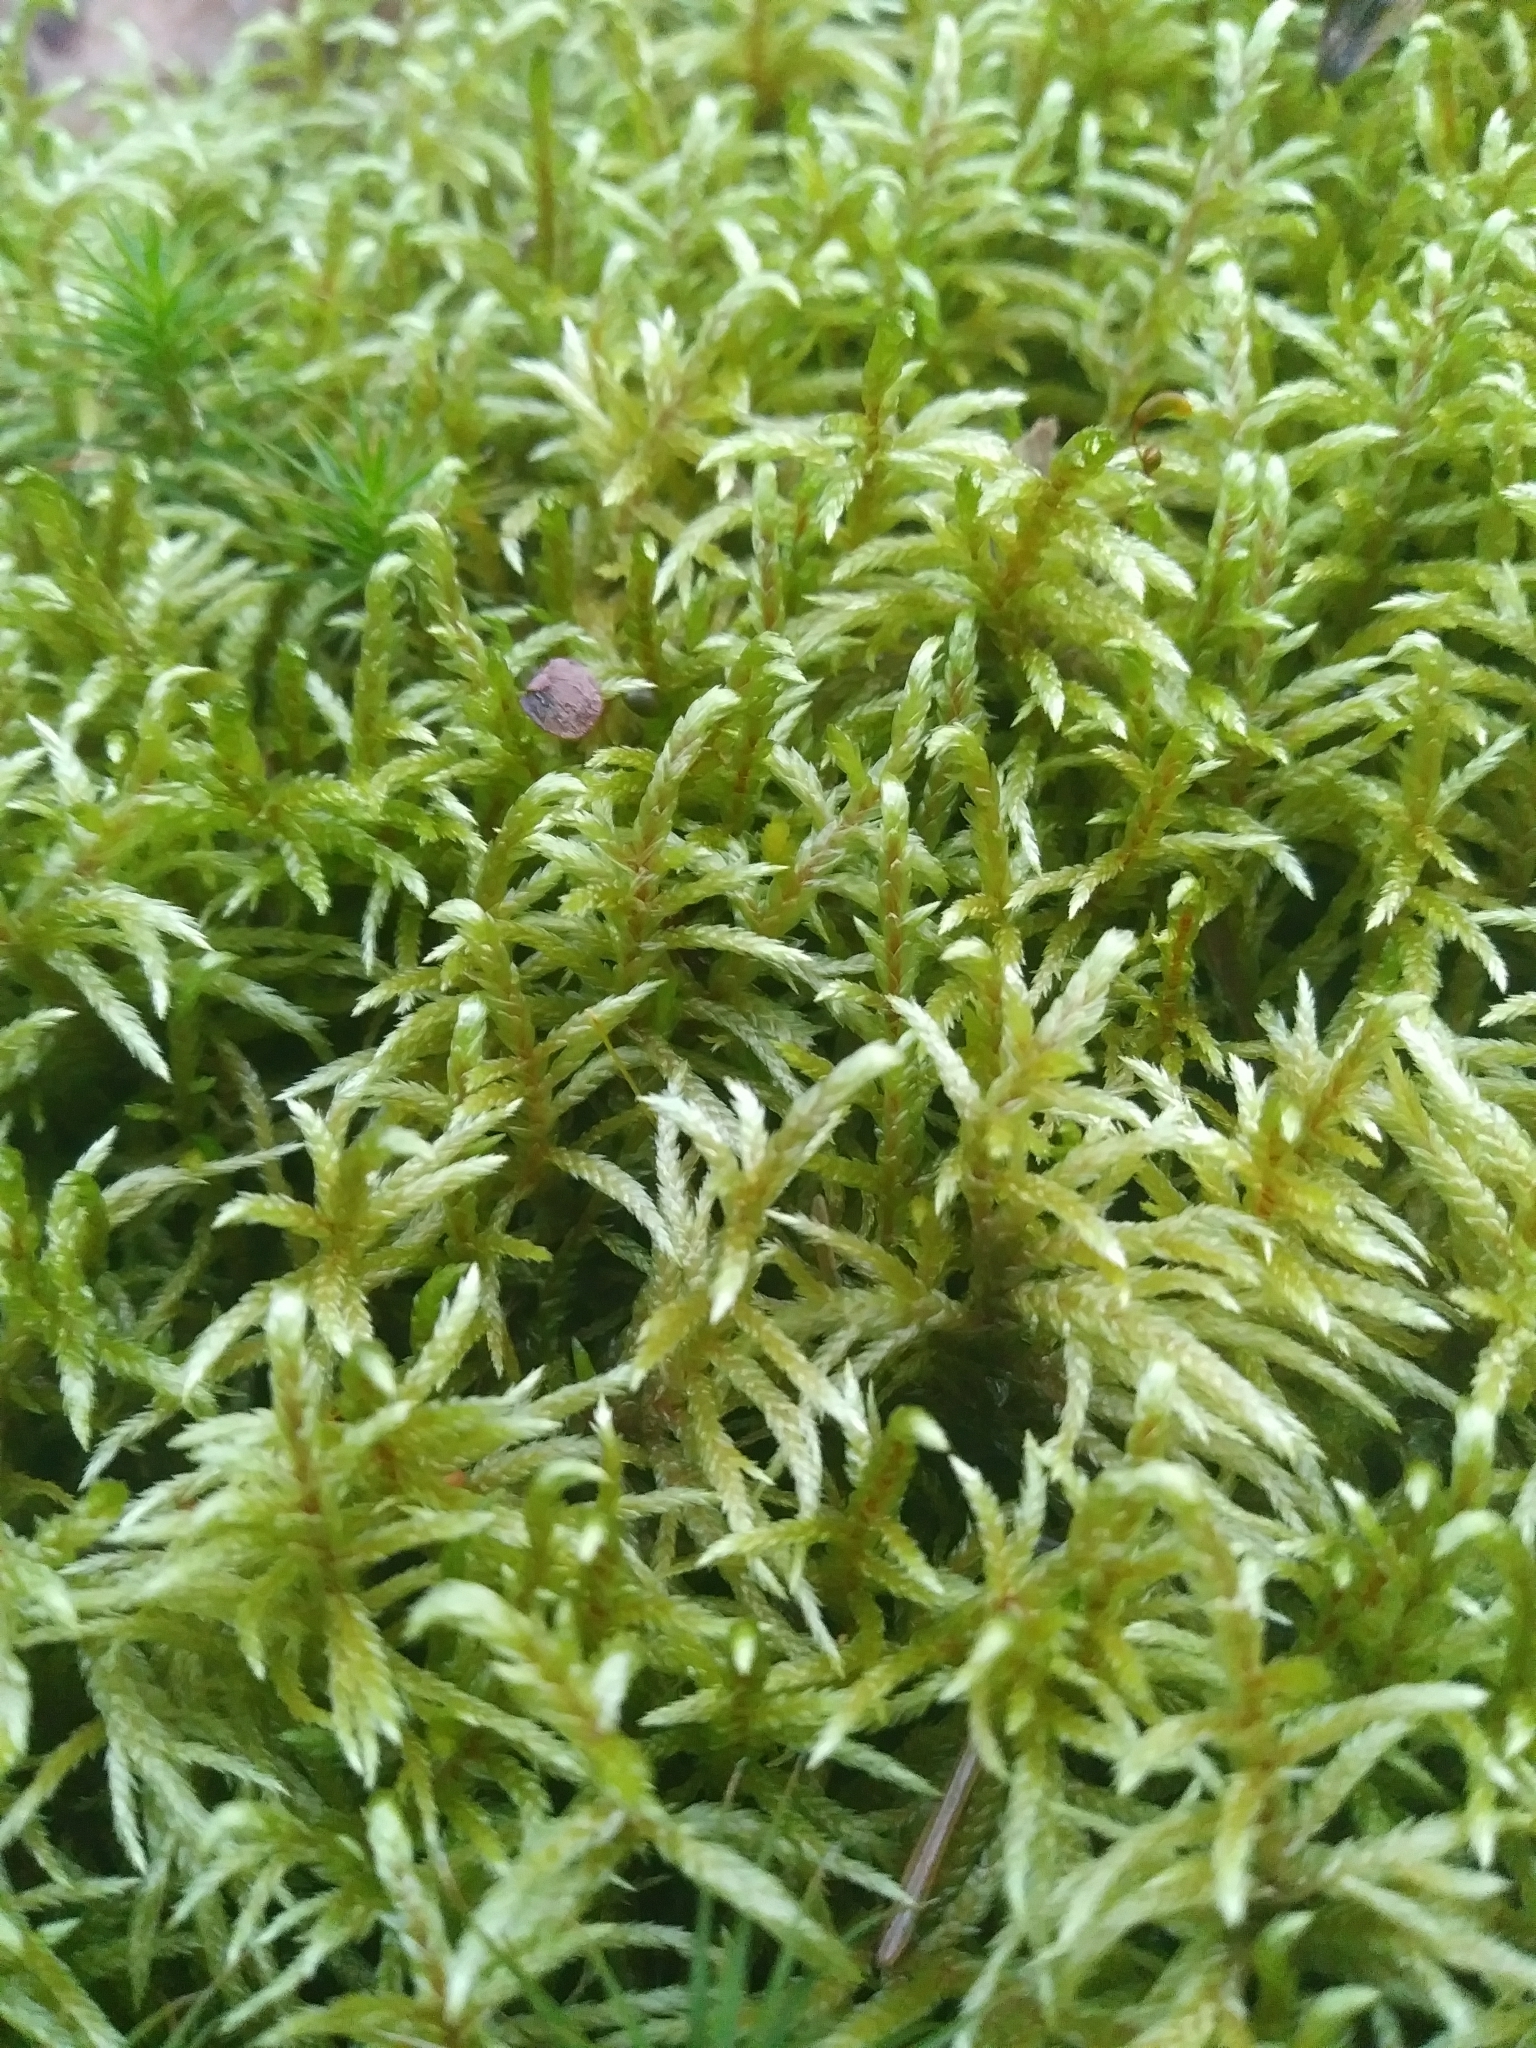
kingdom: Plantae
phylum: Bryophyta
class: Bryopsida
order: Hypnales
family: Hylocomiaceae
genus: Pleurozium
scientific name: Pleurozium schreberi
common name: Red-stemmed feather moss
